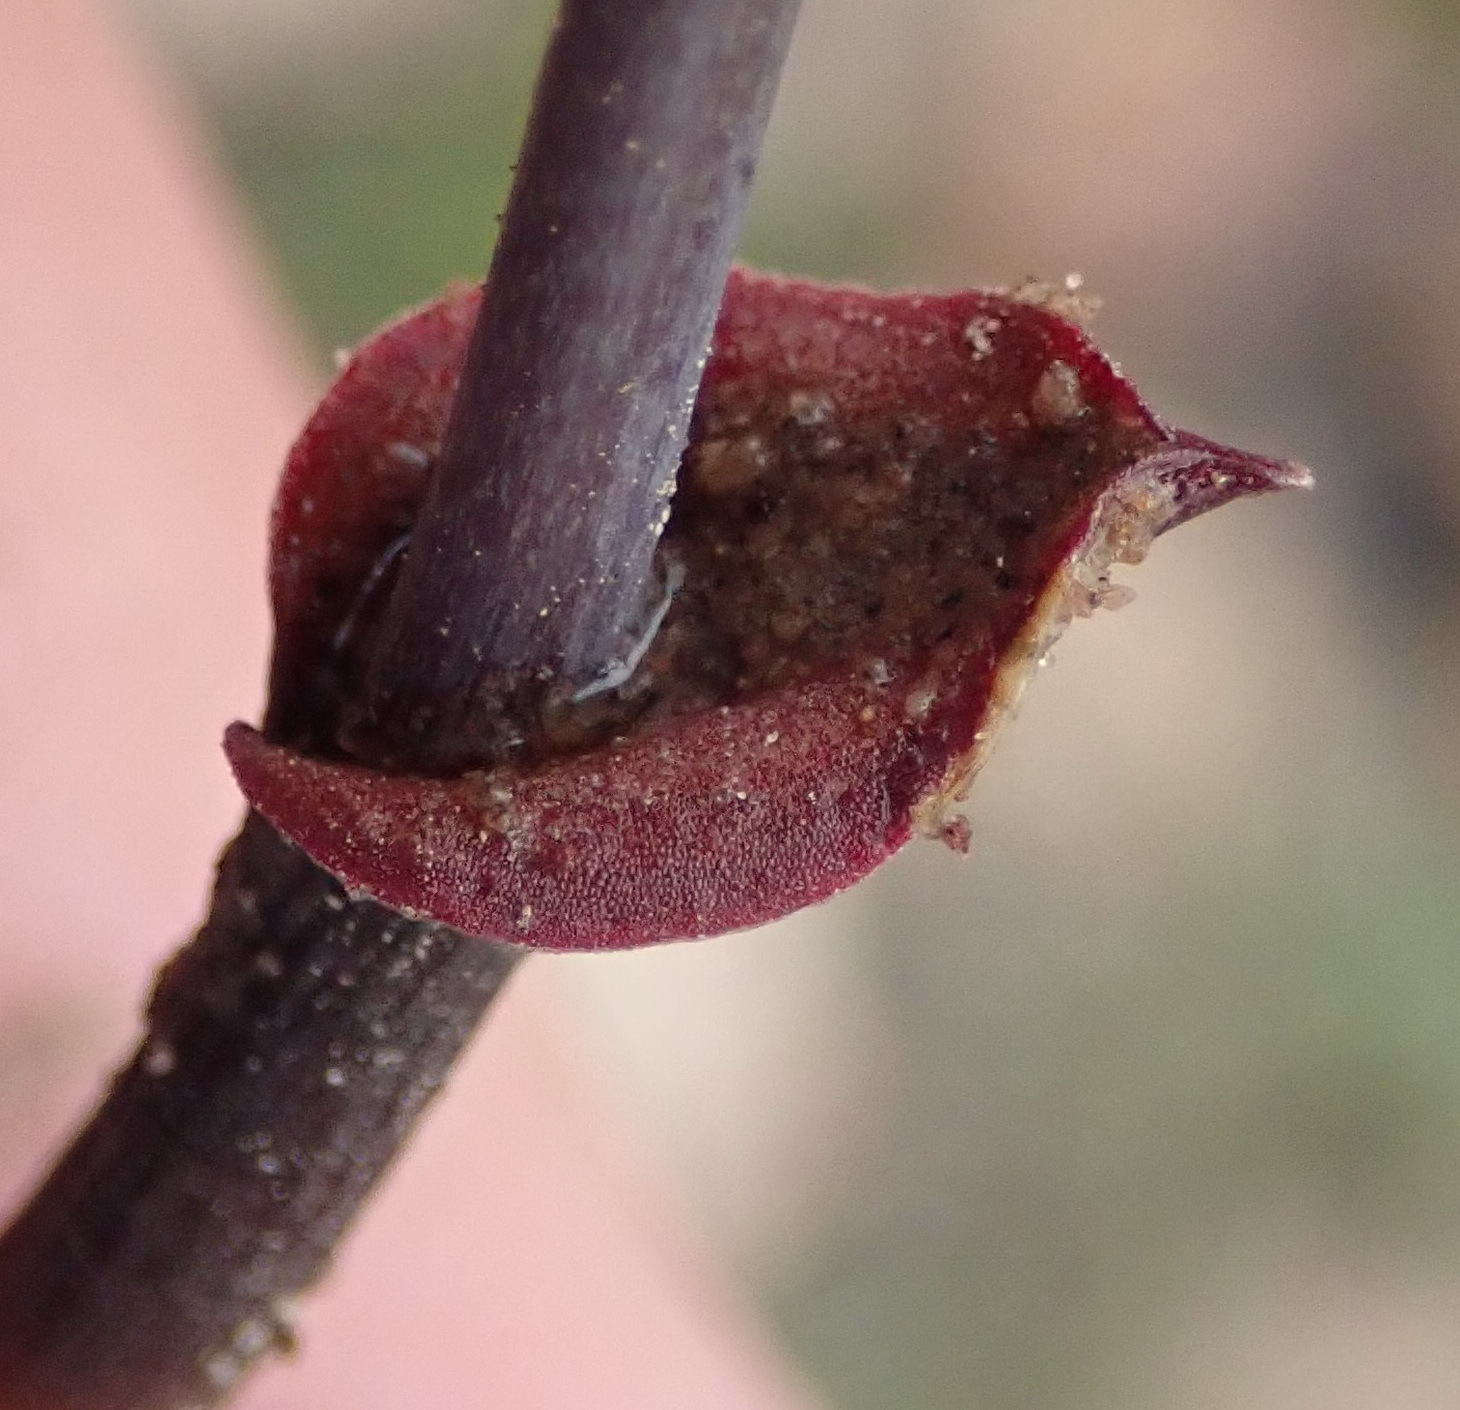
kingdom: Plantae
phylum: Tracheophyta
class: Liliopsida
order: Asparagales
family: Asparagaceae
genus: Eriospermum
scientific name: Eriospermum porphyrium
